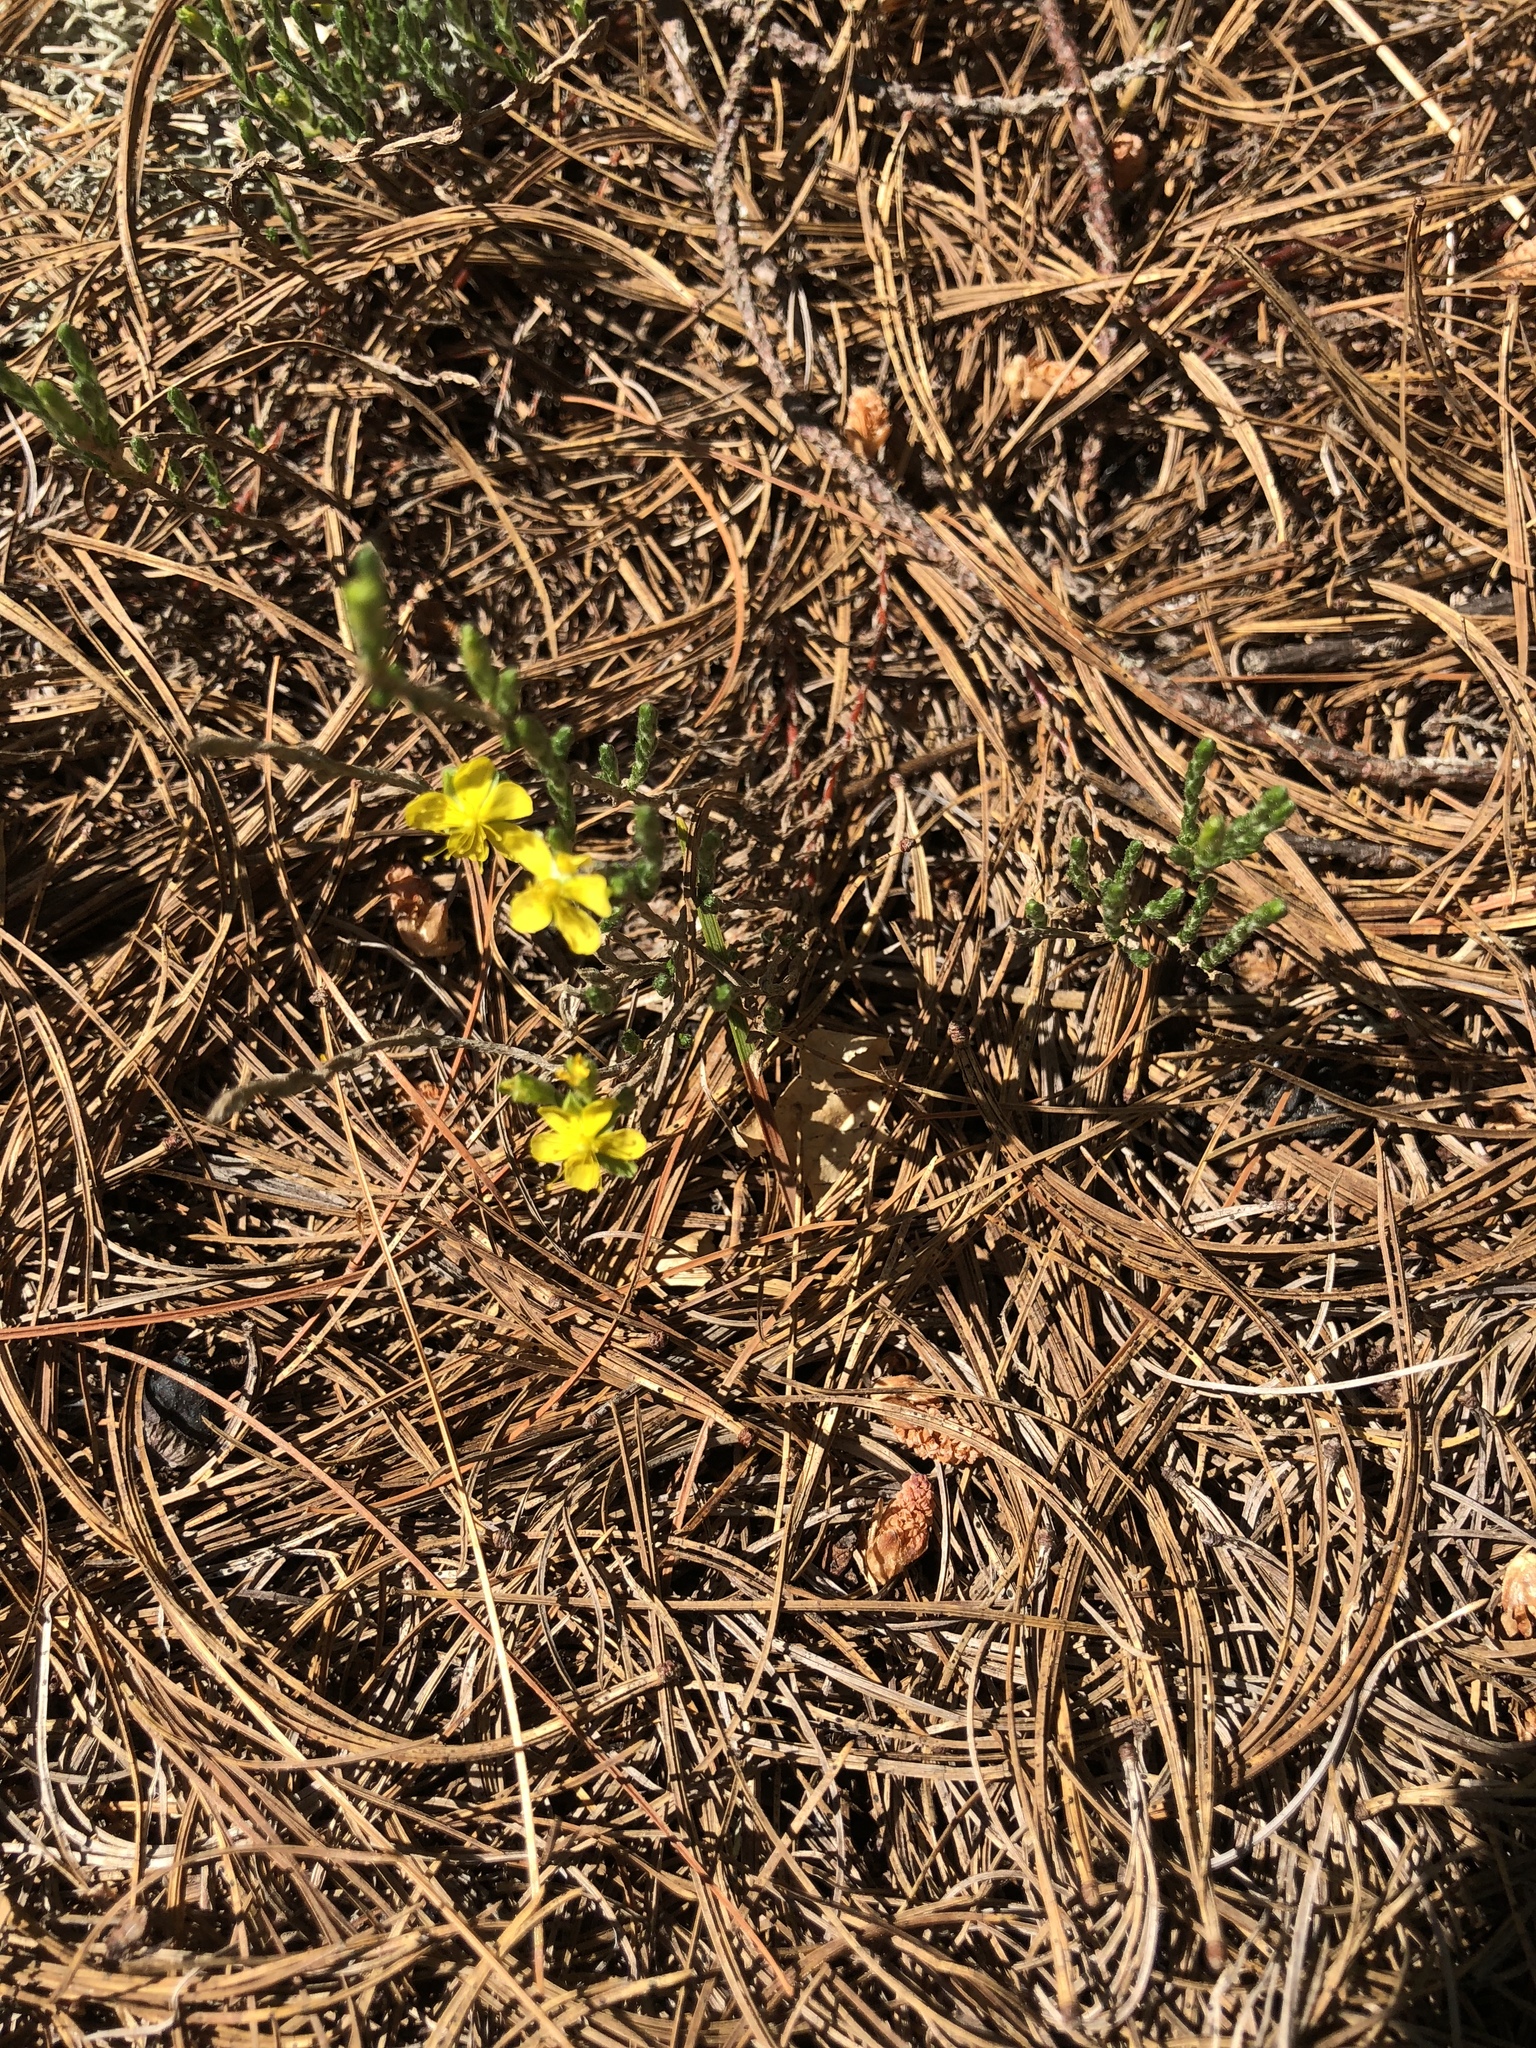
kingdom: Plantae
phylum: Tracheophyta
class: Magnoliopsida
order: Malvales
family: Cistaceae
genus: Hudsonia
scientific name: Hudsonia tomentosa
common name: Beach-heath
